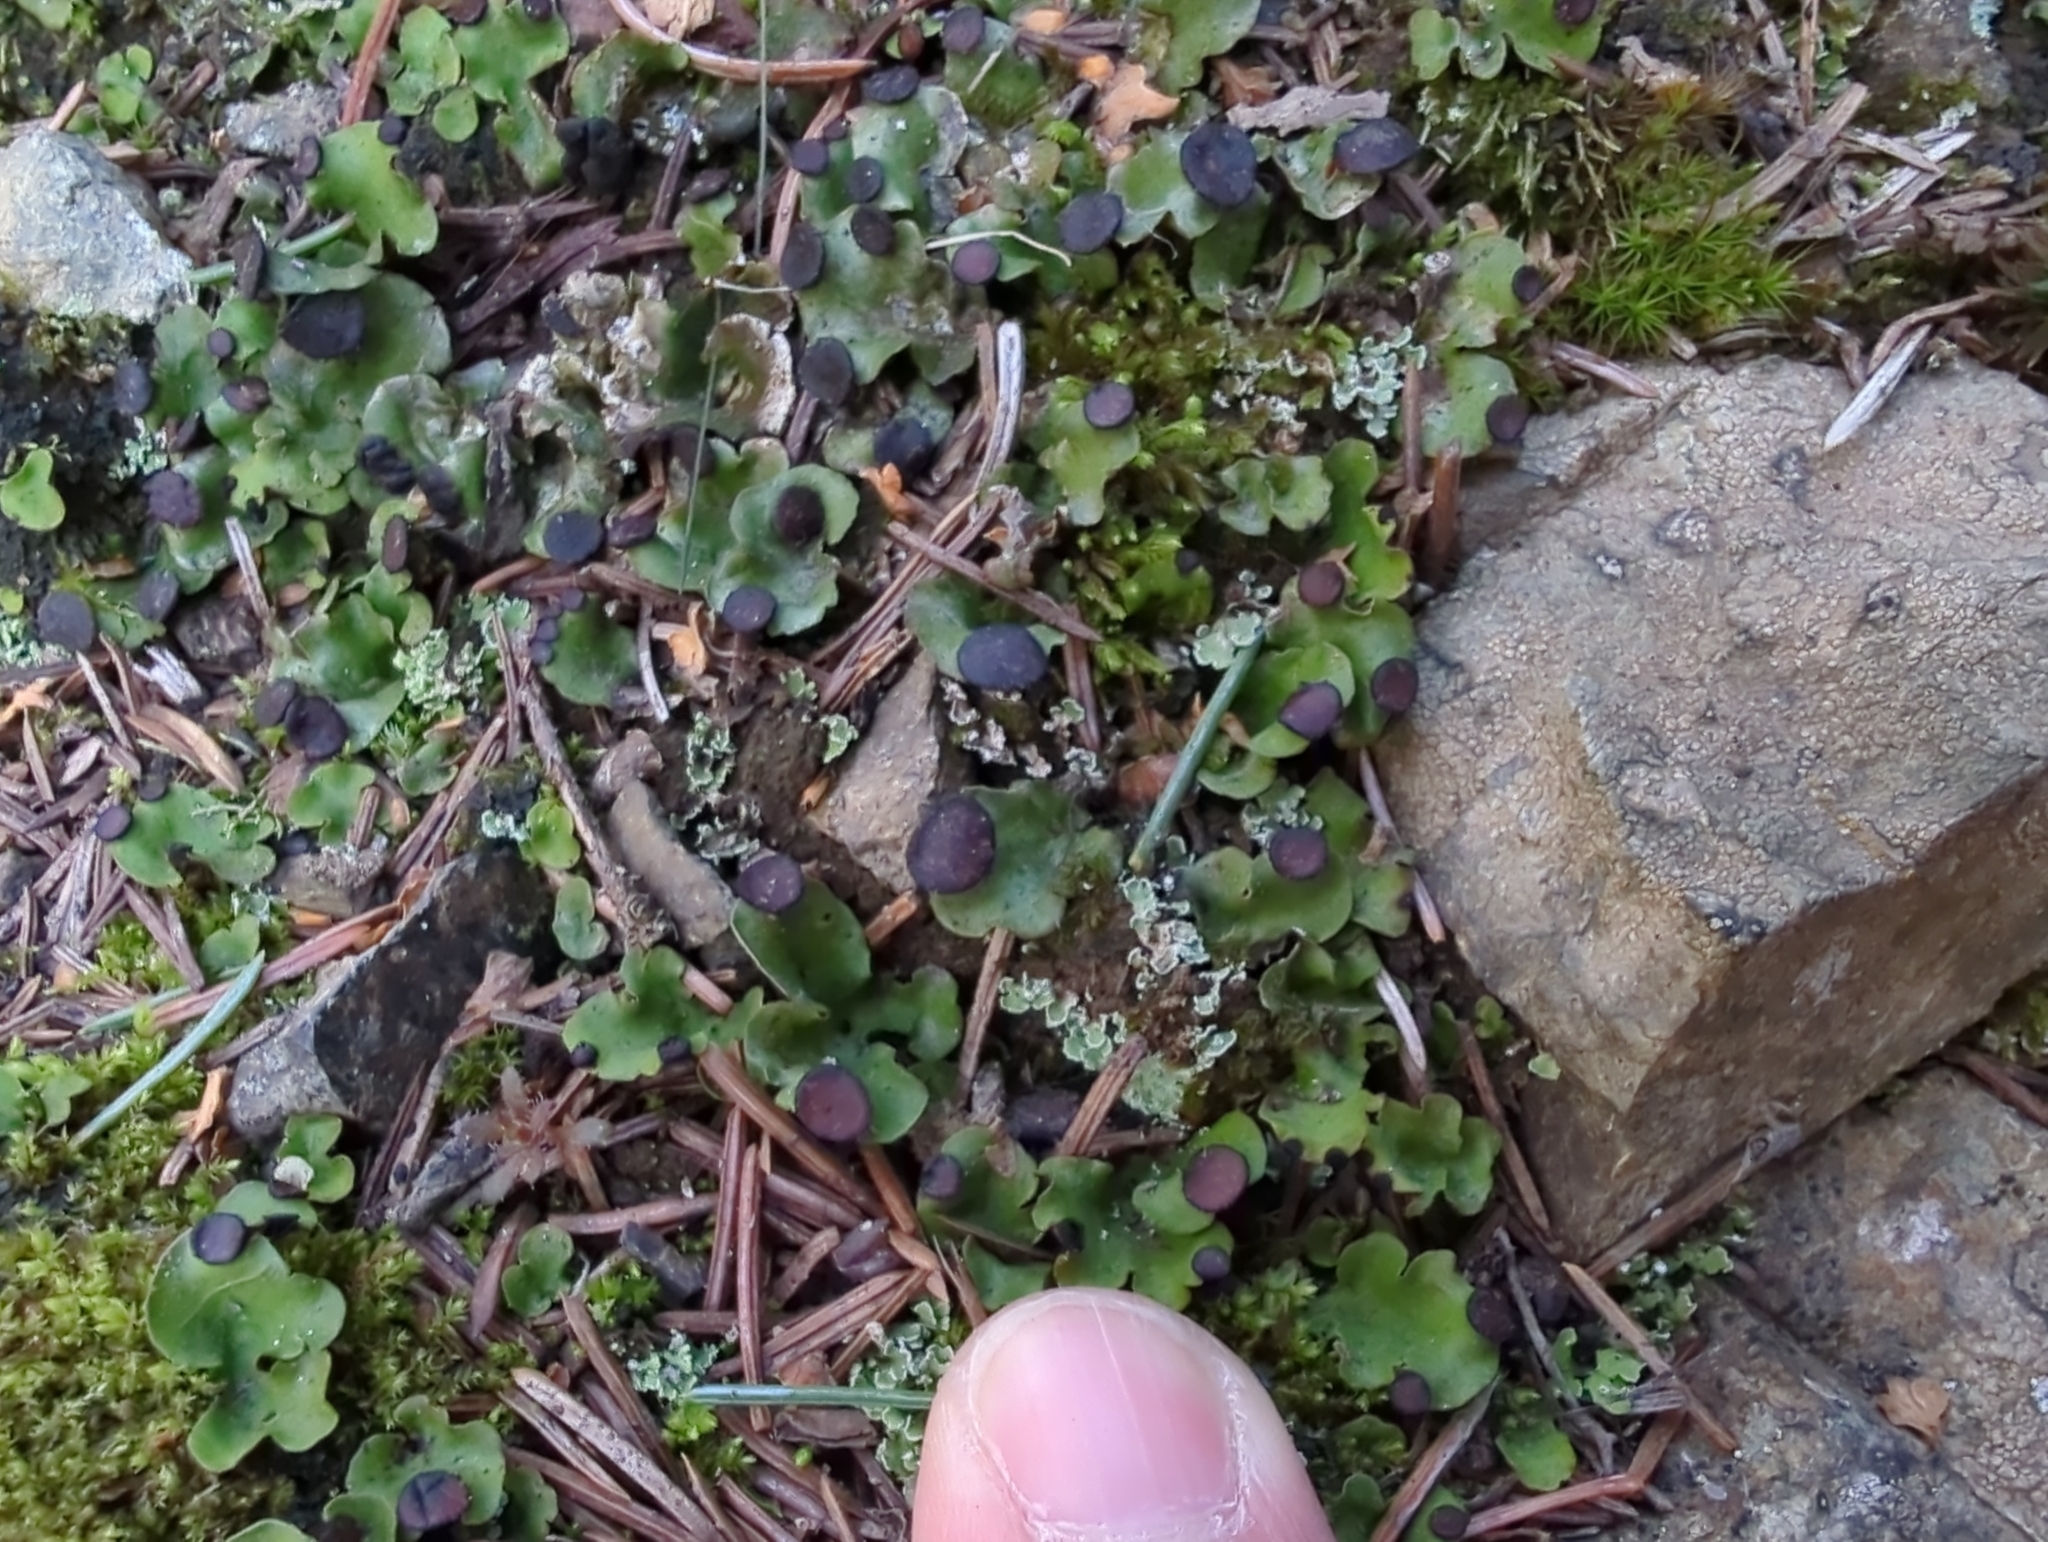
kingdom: Fungi
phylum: Ascomycota
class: Lecanoromycetes
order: Peltigerales
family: Peltigeraceae
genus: Peltigera
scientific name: Peltigera venosa
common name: Pixie gowns lichen
